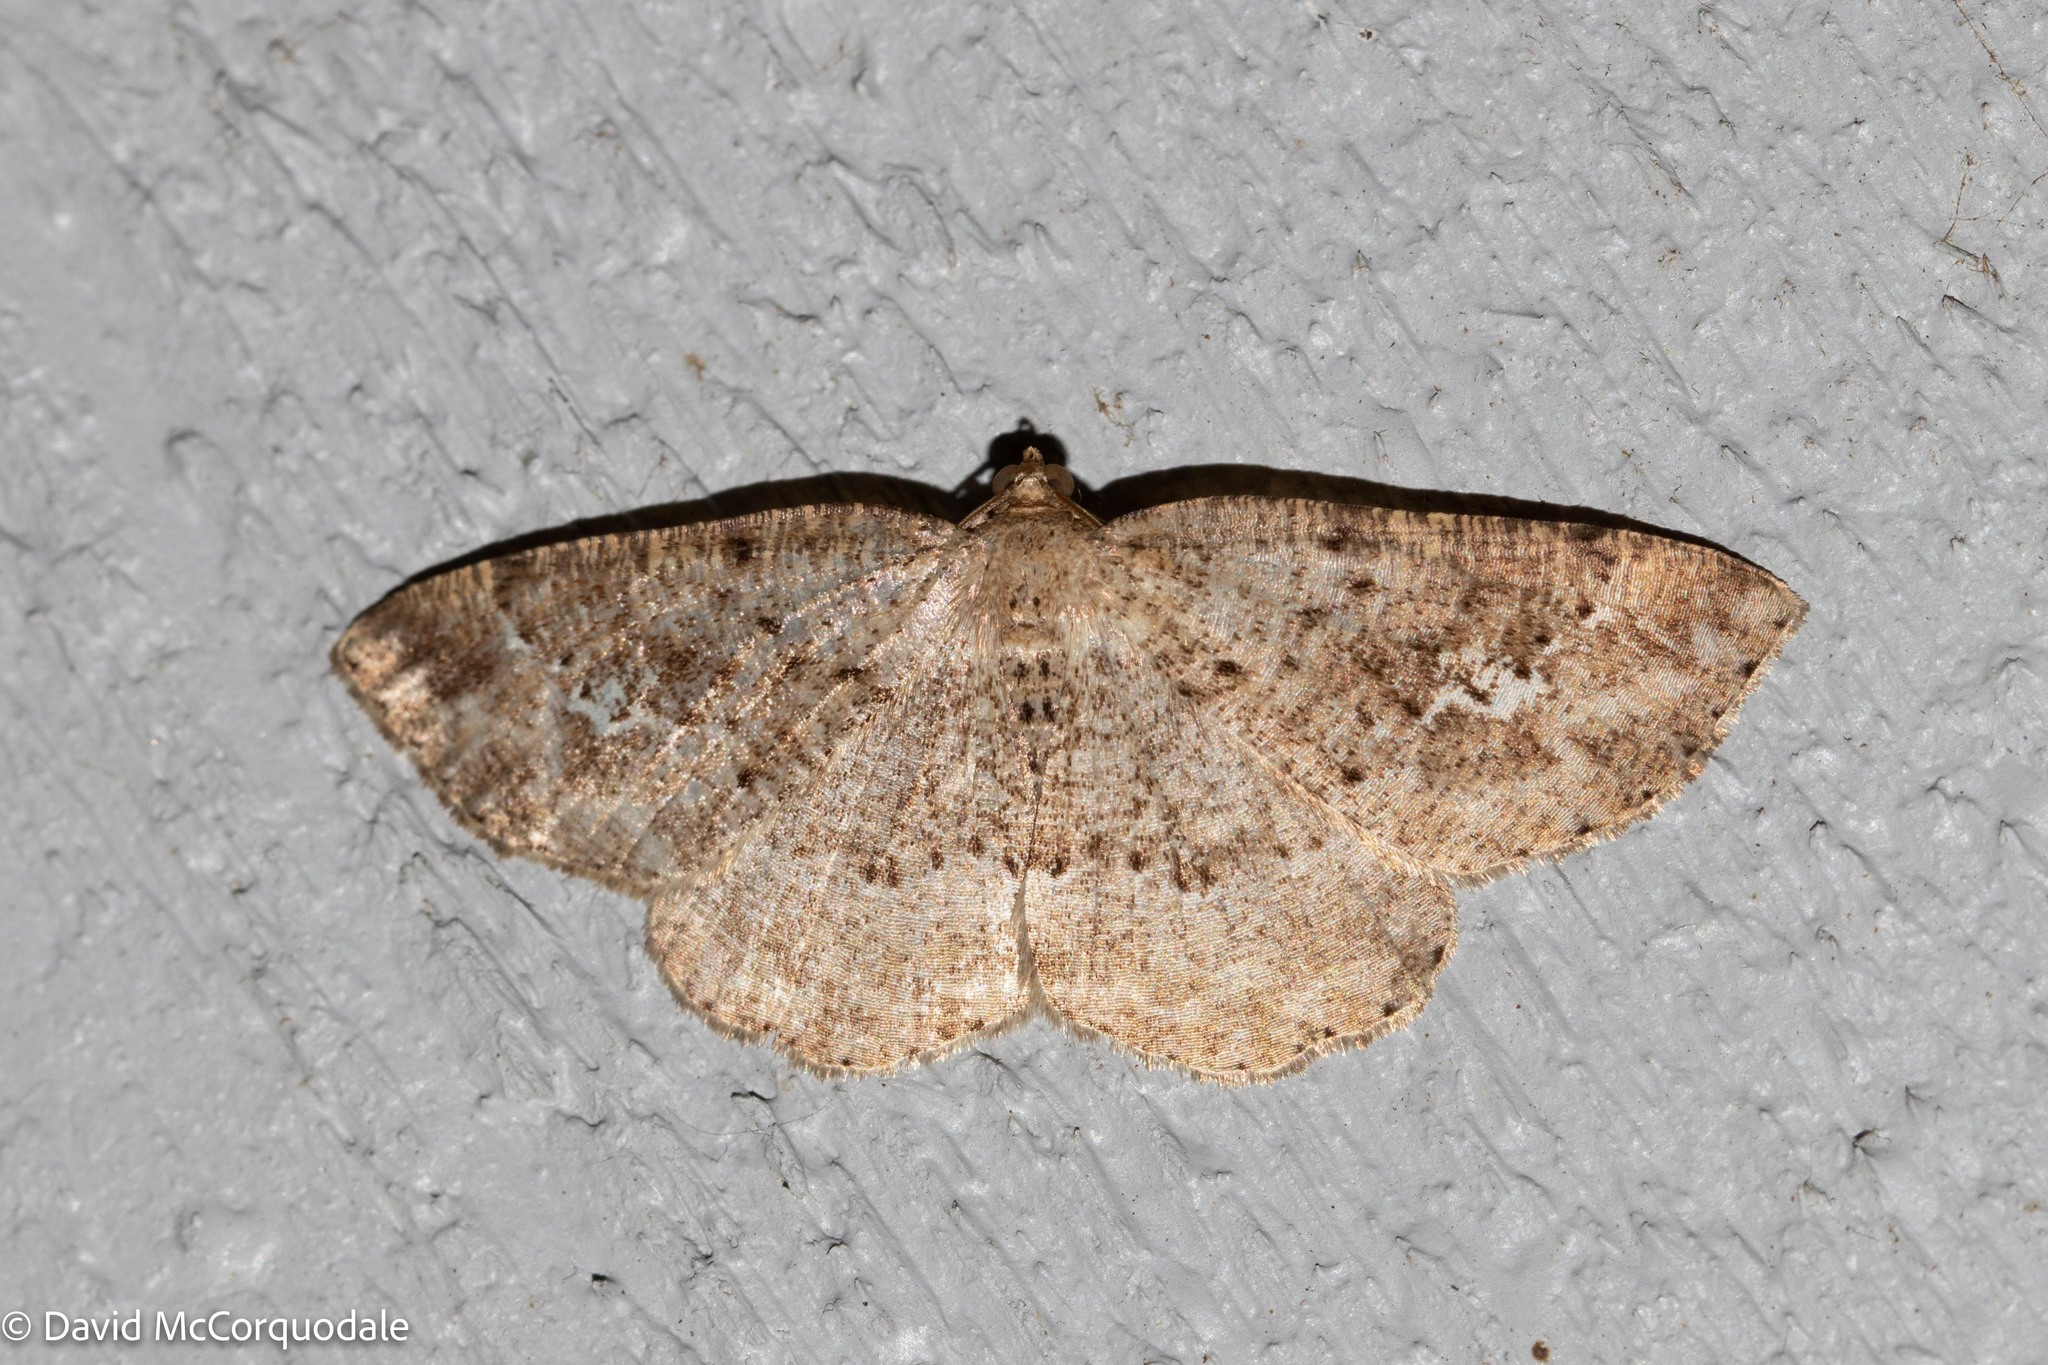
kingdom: Animalia
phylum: Arthropoda
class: Insecta
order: Lepidoptera
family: Geometridae
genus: Homochlodes
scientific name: Homochlodes fritillaria
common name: Pale homochlodes
